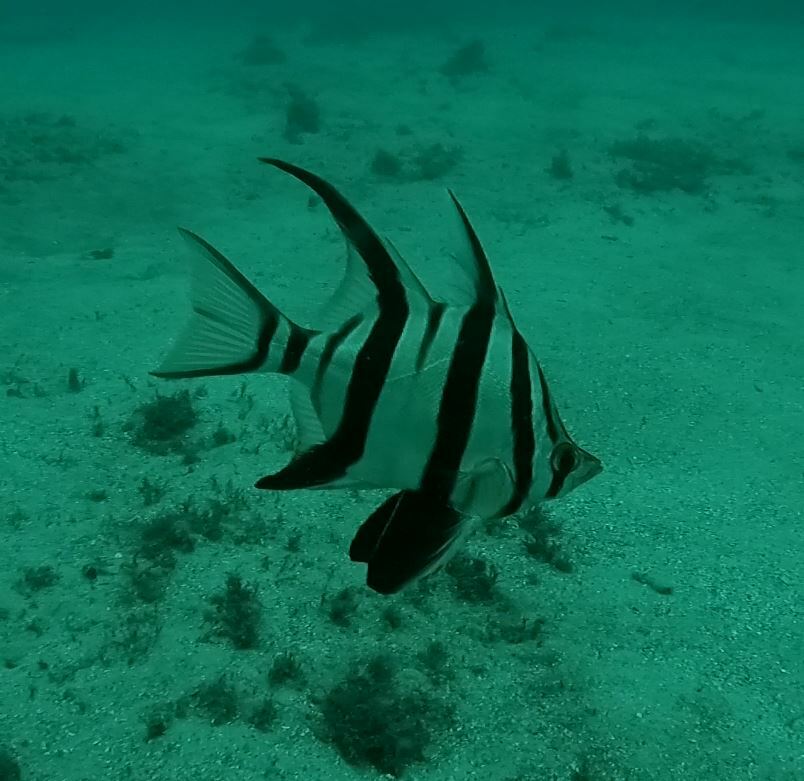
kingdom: Animalia
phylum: Chordata
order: Perciformes
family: Enoplosidae
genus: Enoplosus
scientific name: Enoplosus armatus
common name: Old wife
